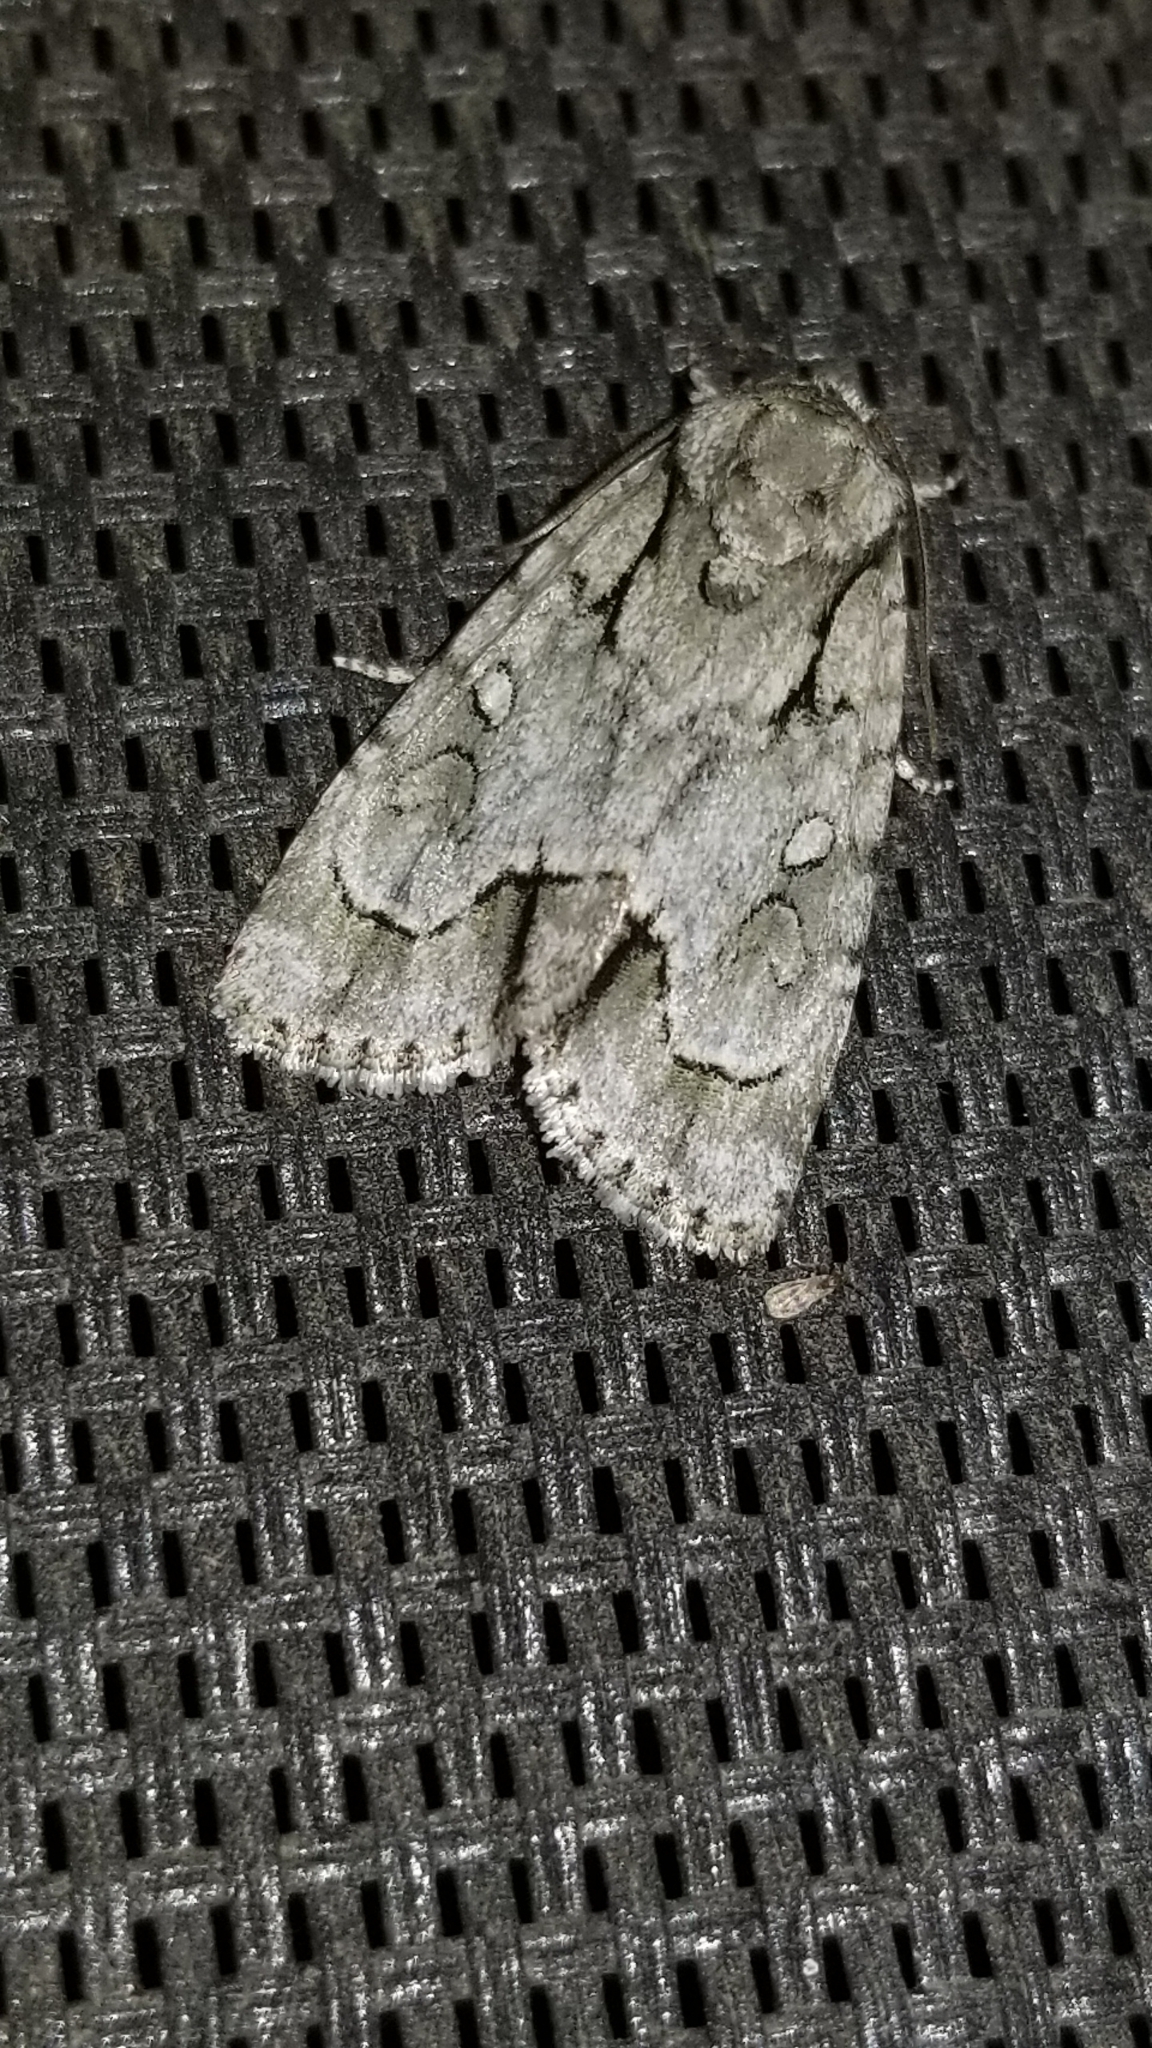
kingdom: Animalia
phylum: Arthropoda
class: Insecta
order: Lepidoptera
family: Noctuidae
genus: Acronicta
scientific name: Acronicta vinnula
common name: Delightful dagger
